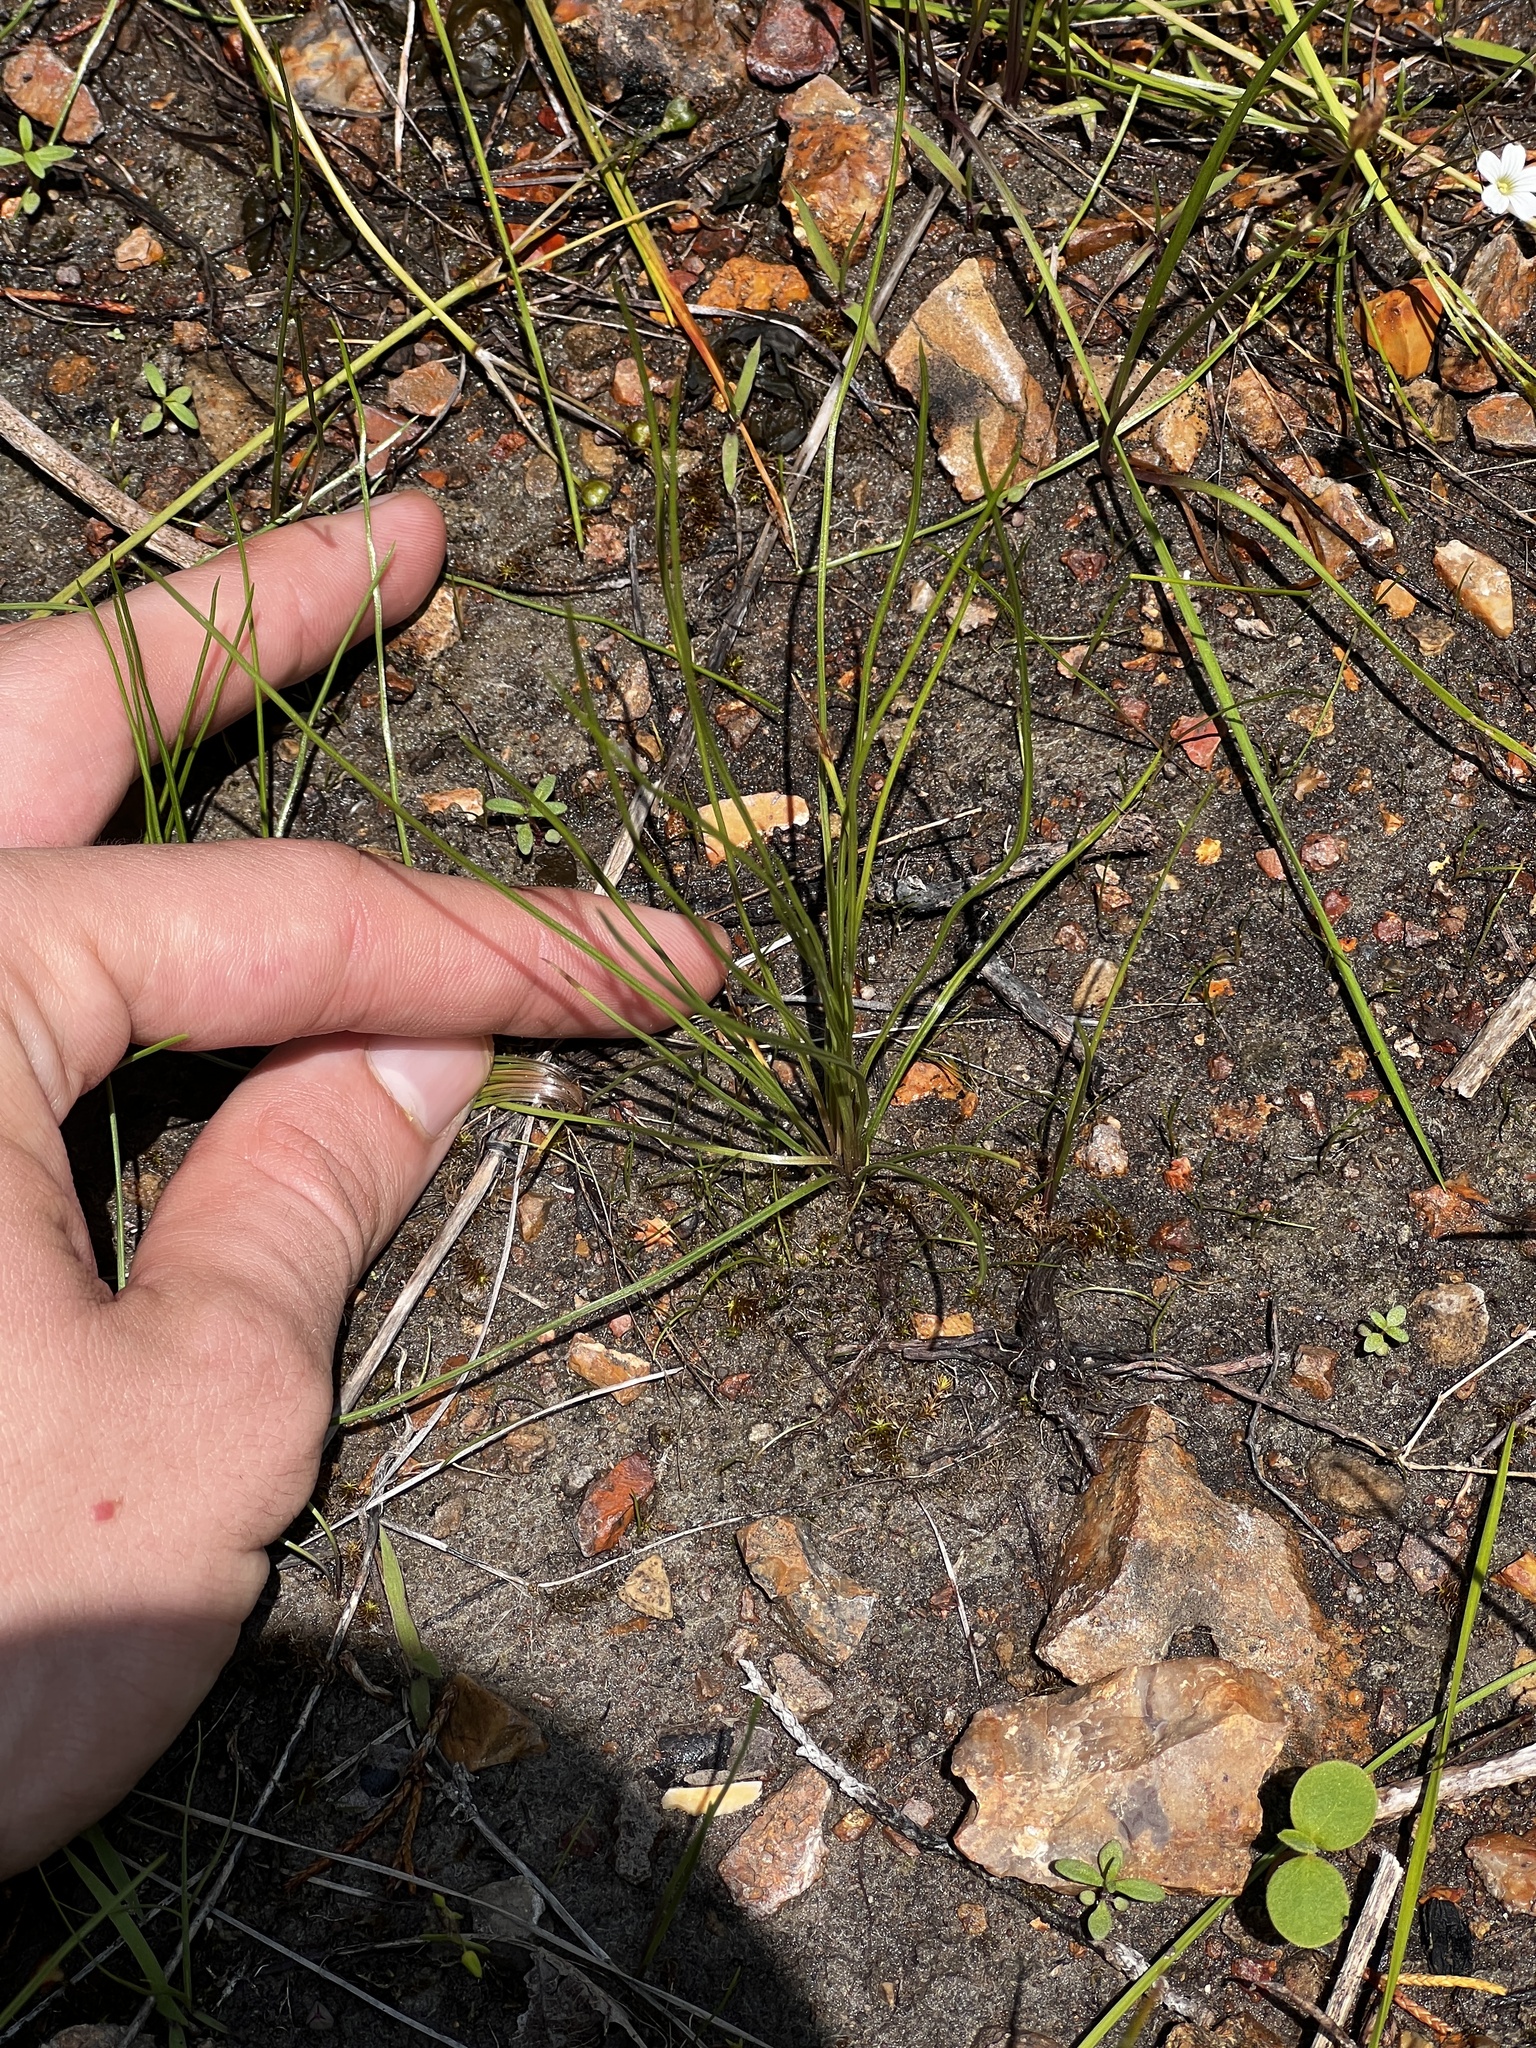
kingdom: Plantae
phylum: Tracheophyta
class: Lycopodiopsida
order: Isoetales
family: Isoetaceae
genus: Isoetes
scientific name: Isoetes butleri
